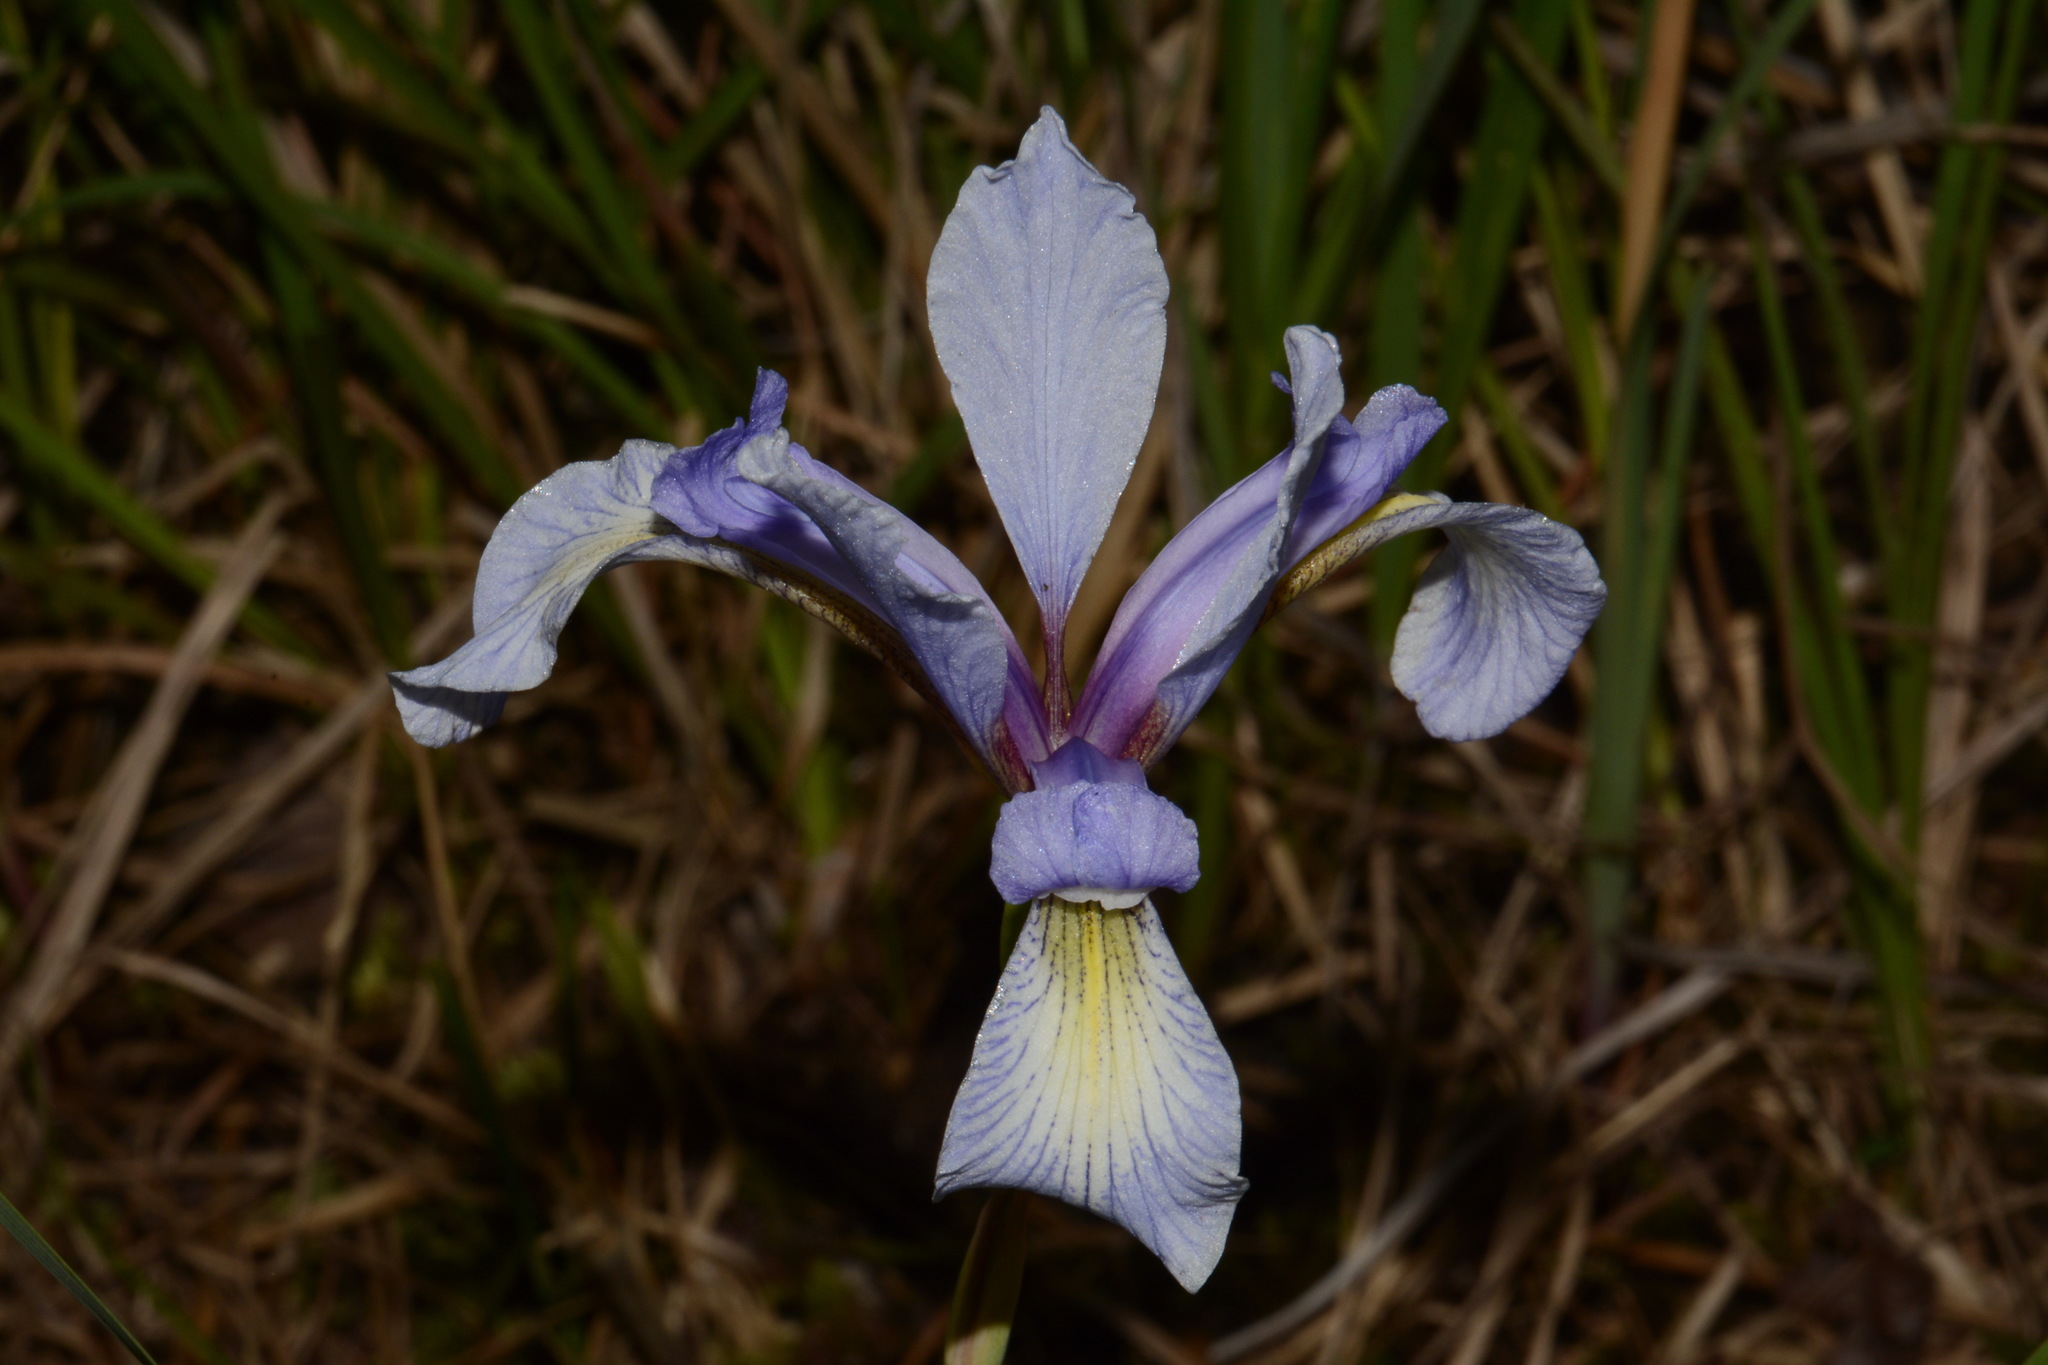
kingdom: Plantae
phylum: Tracheophyta
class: Liliopsida
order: Asparagales
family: Iridaceae
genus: Iris
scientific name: Iris prismatica
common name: Slender blue flag
